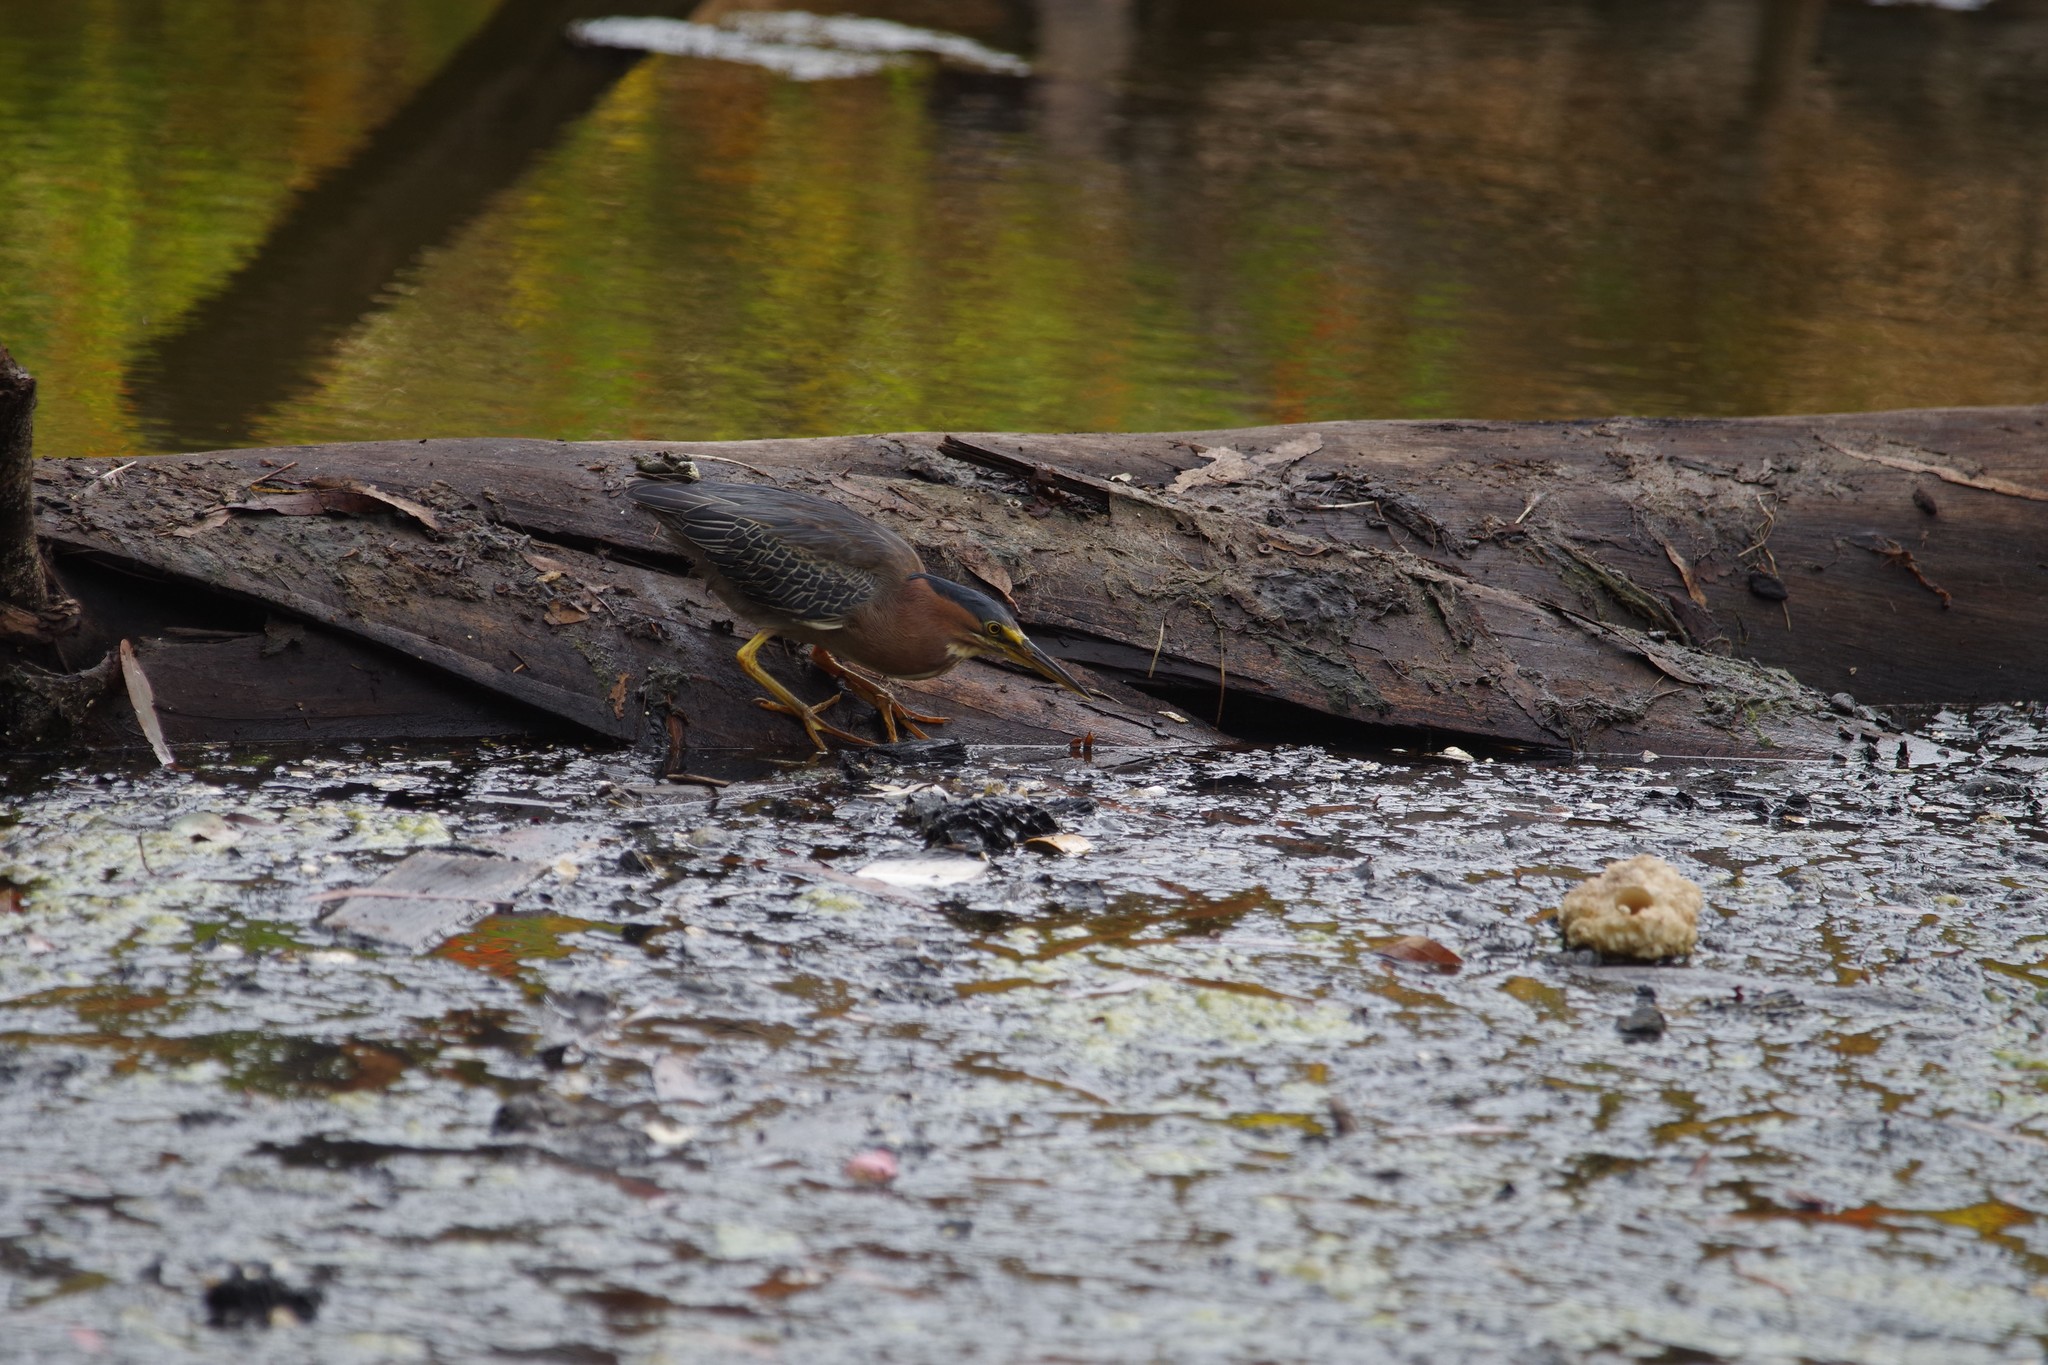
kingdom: Animalia
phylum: Chordata
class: Aves
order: Pelecaniformes
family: Ardeidae
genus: Butorides
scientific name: Butorides virescens
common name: Green heron
